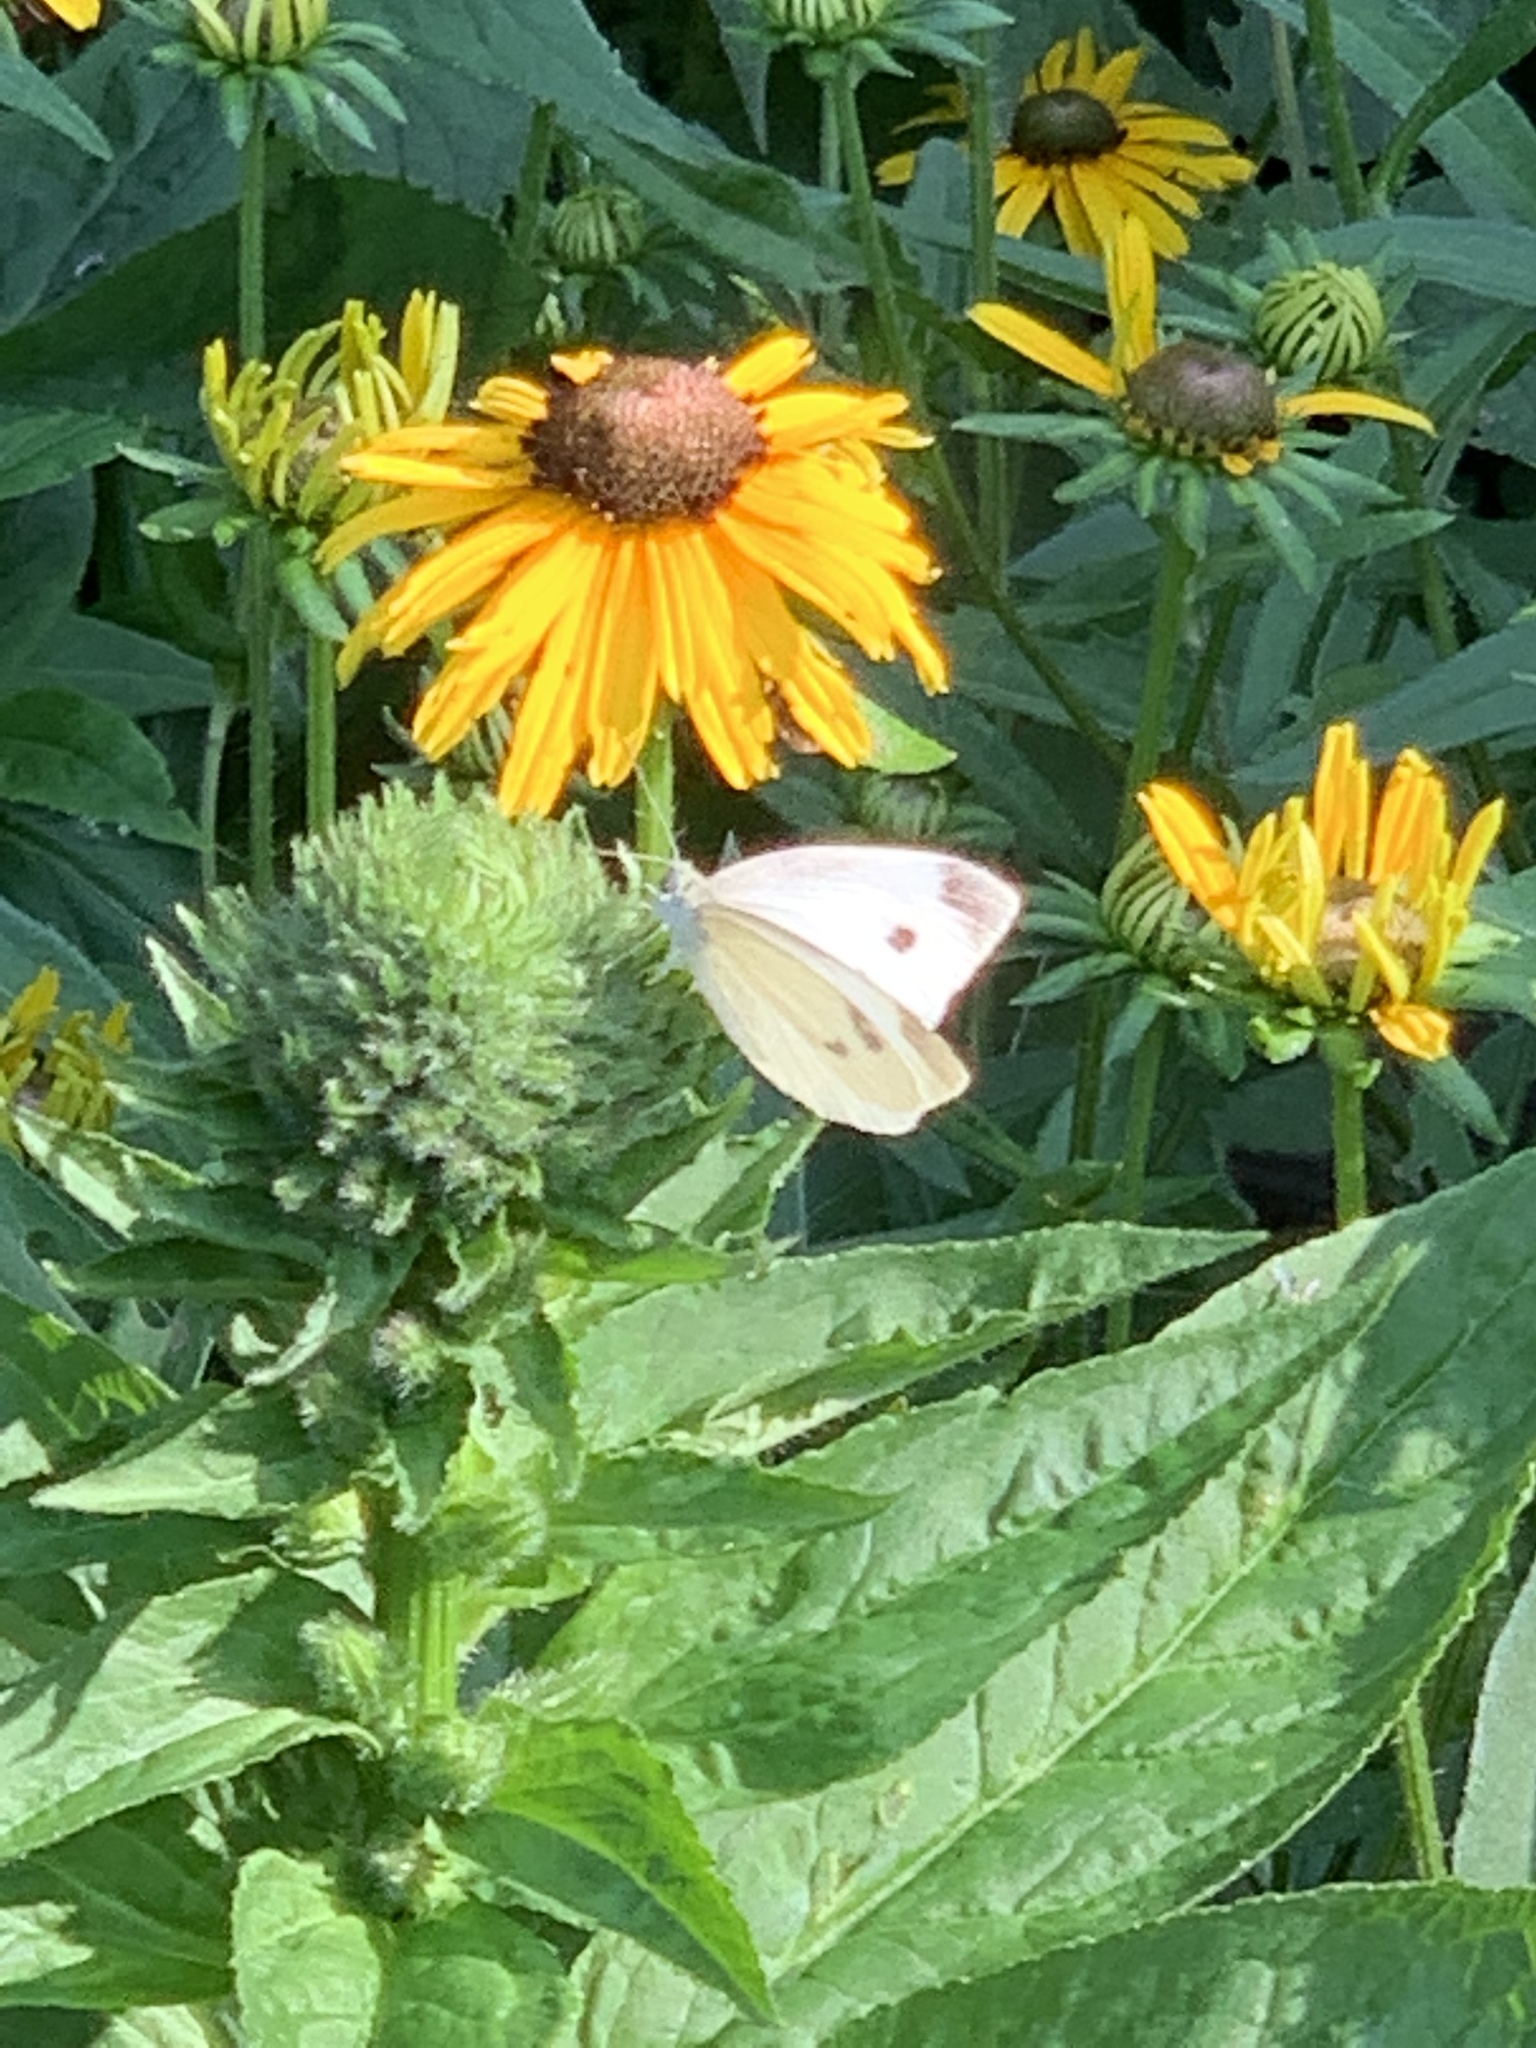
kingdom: Animalia
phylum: Arthropoda
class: Insecta
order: Lepidoptera
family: Pieridae
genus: Pieris
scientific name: Pieris rapae
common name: Small white
